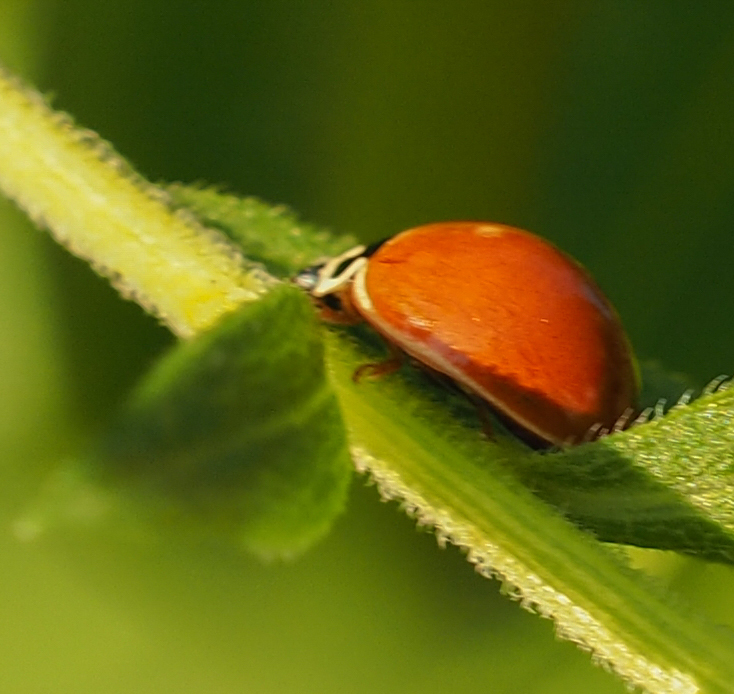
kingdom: Animalia
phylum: Arthropoda
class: Insecta
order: Coleoptera
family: Coccinellidae
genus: Cycloneda
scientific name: Cycloneda munda
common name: Polished lady beetle
